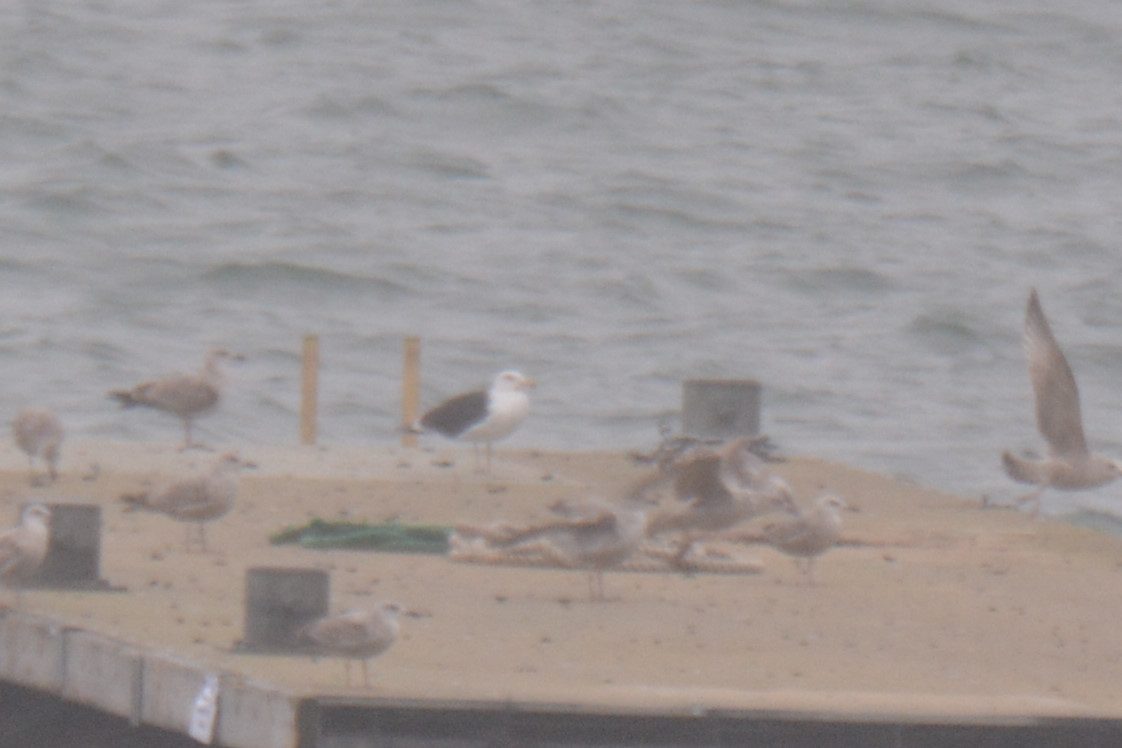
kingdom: Animalia
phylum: Chordata
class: Aves
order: Charadriiformes
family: Laridae
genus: Larus
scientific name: Larus marinus
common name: Great black-backed gull
